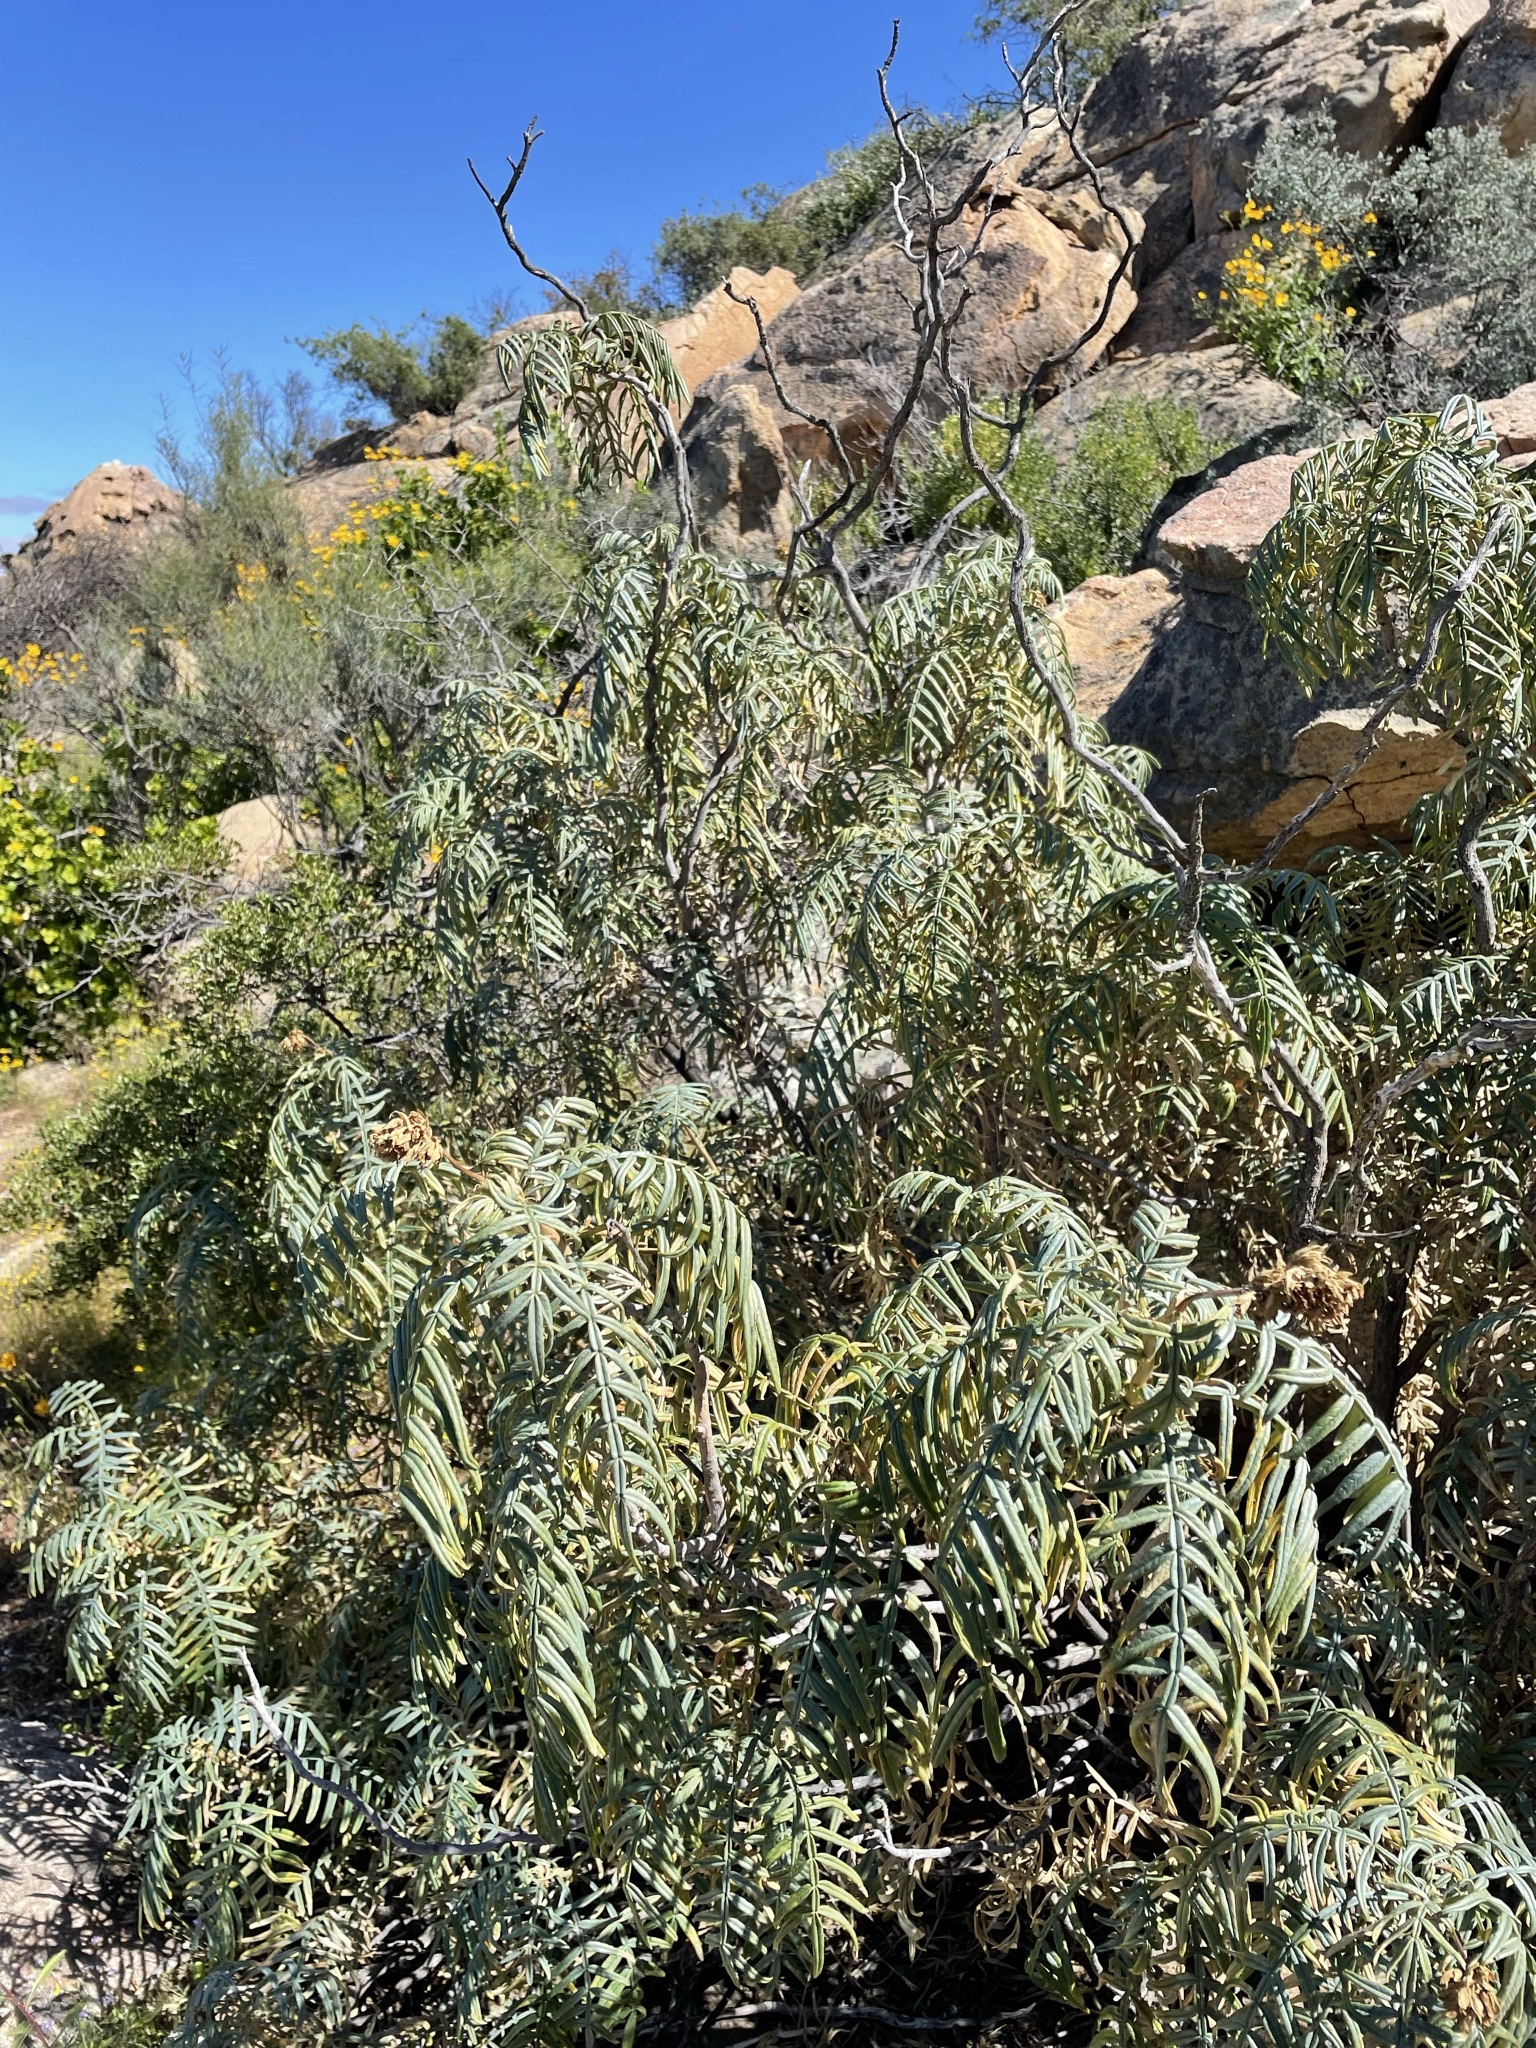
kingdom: Plantae
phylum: Tracheophyta
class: Magnoliopsida
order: Geraniales
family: Melianthaceae
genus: Melianthus
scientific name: Melianthus pectinatus
